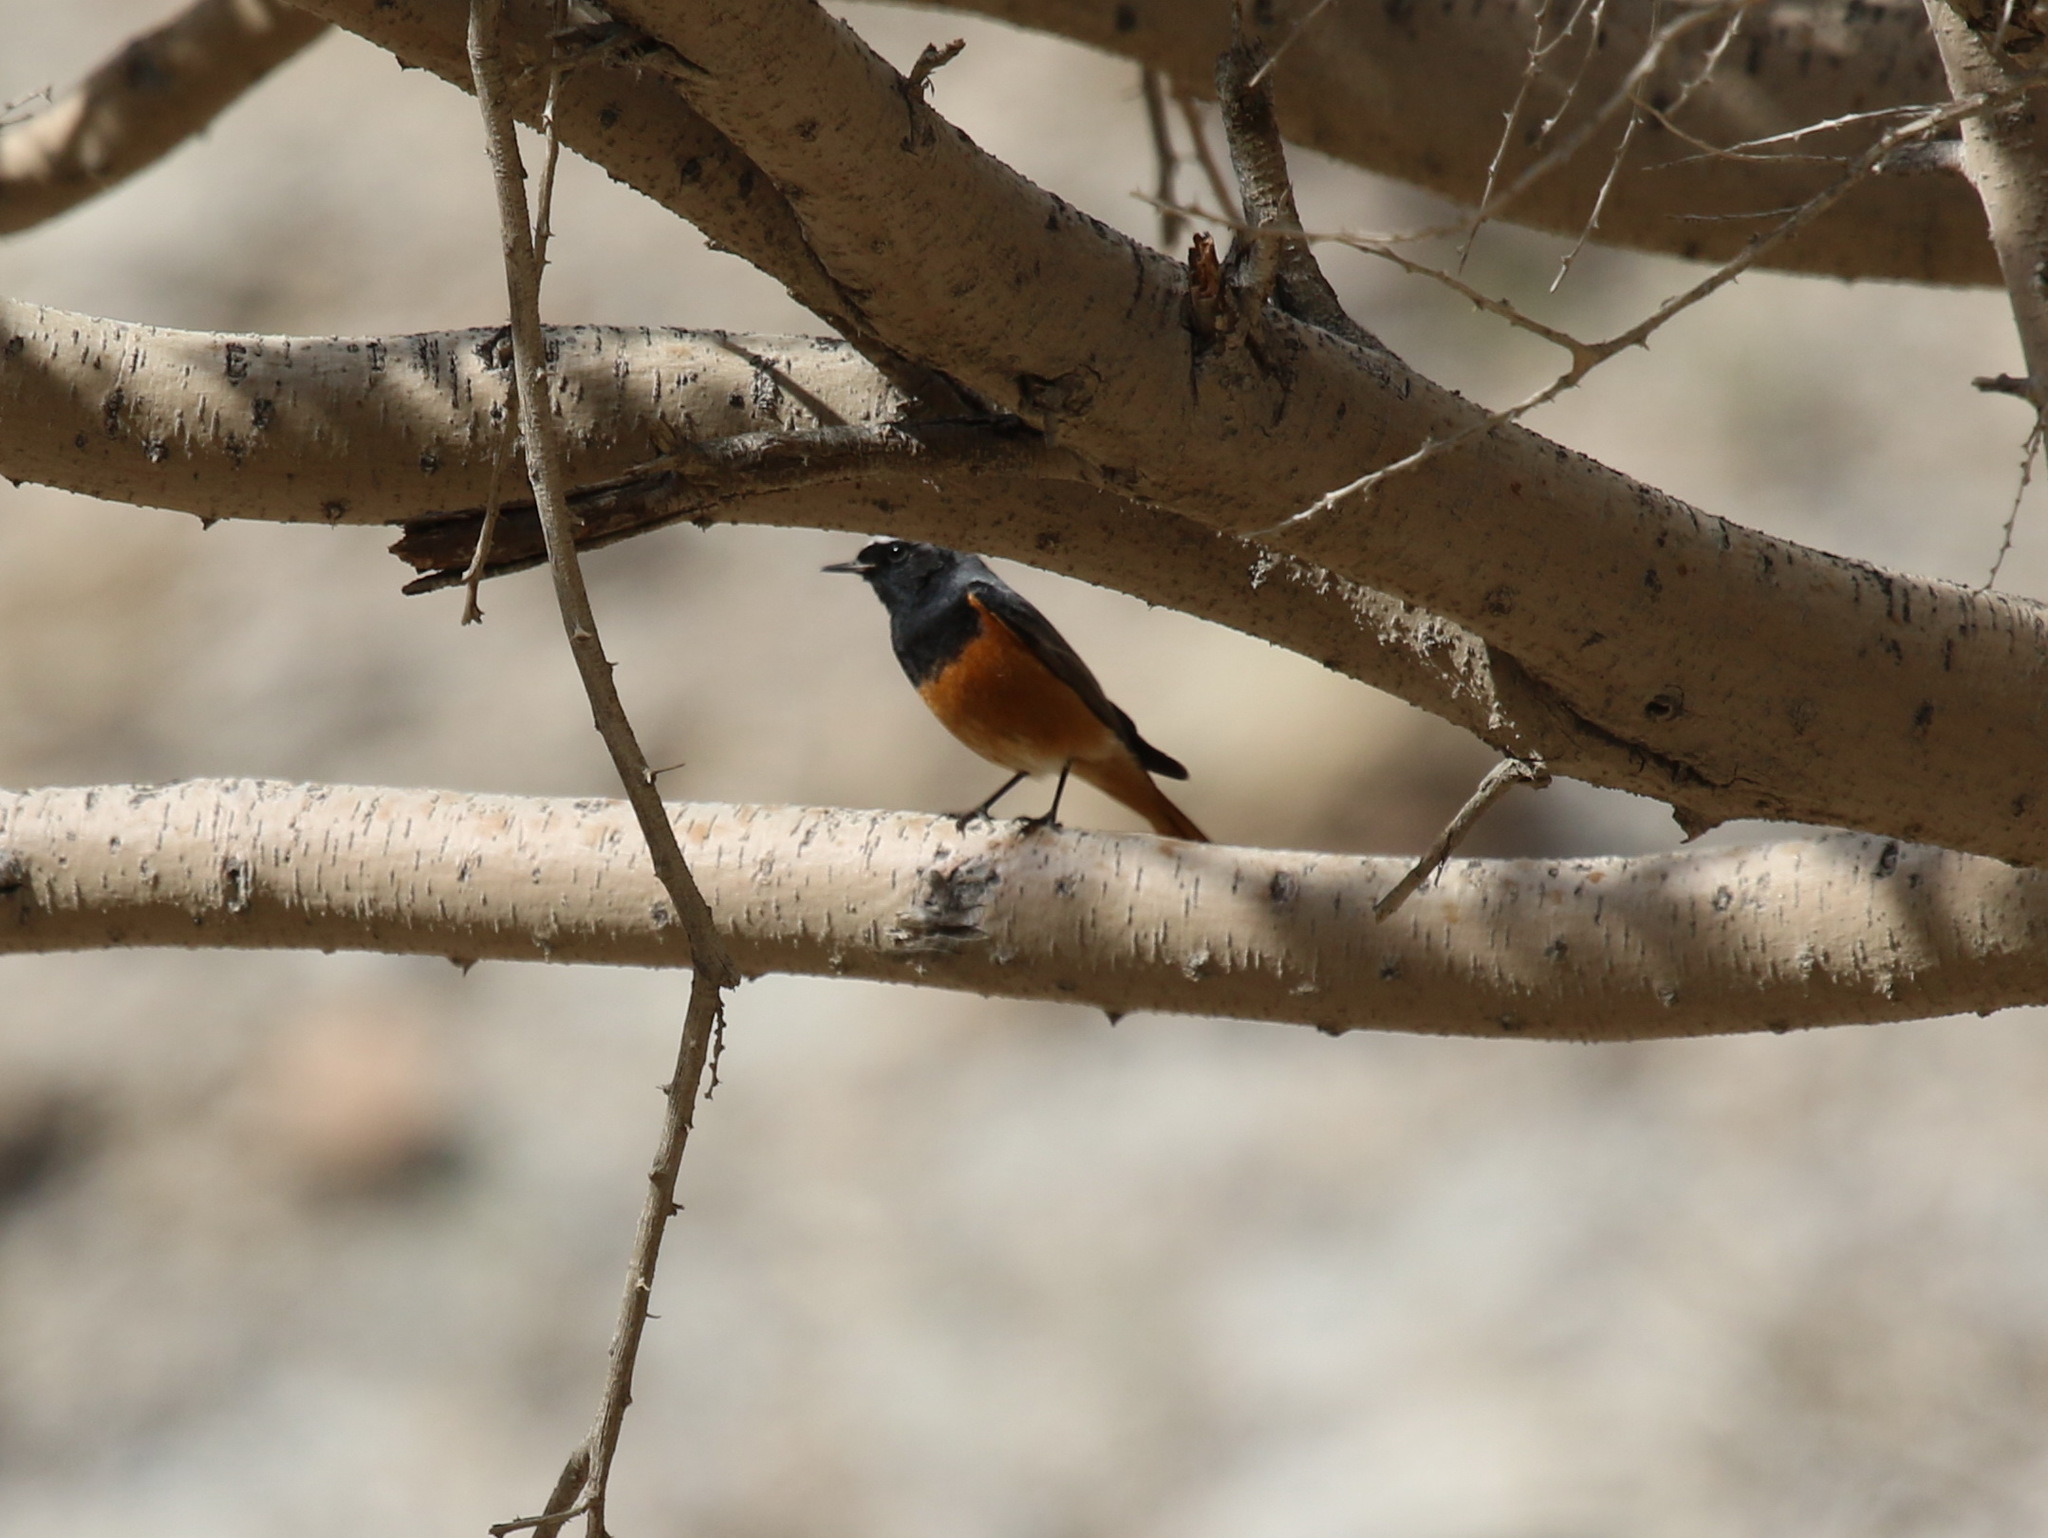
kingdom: Animalia
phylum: Chordata
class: Aves
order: Passeriformes
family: Muscicapidae
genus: Phoenicurus
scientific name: Phoenicurus ochruros
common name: Black redstart
